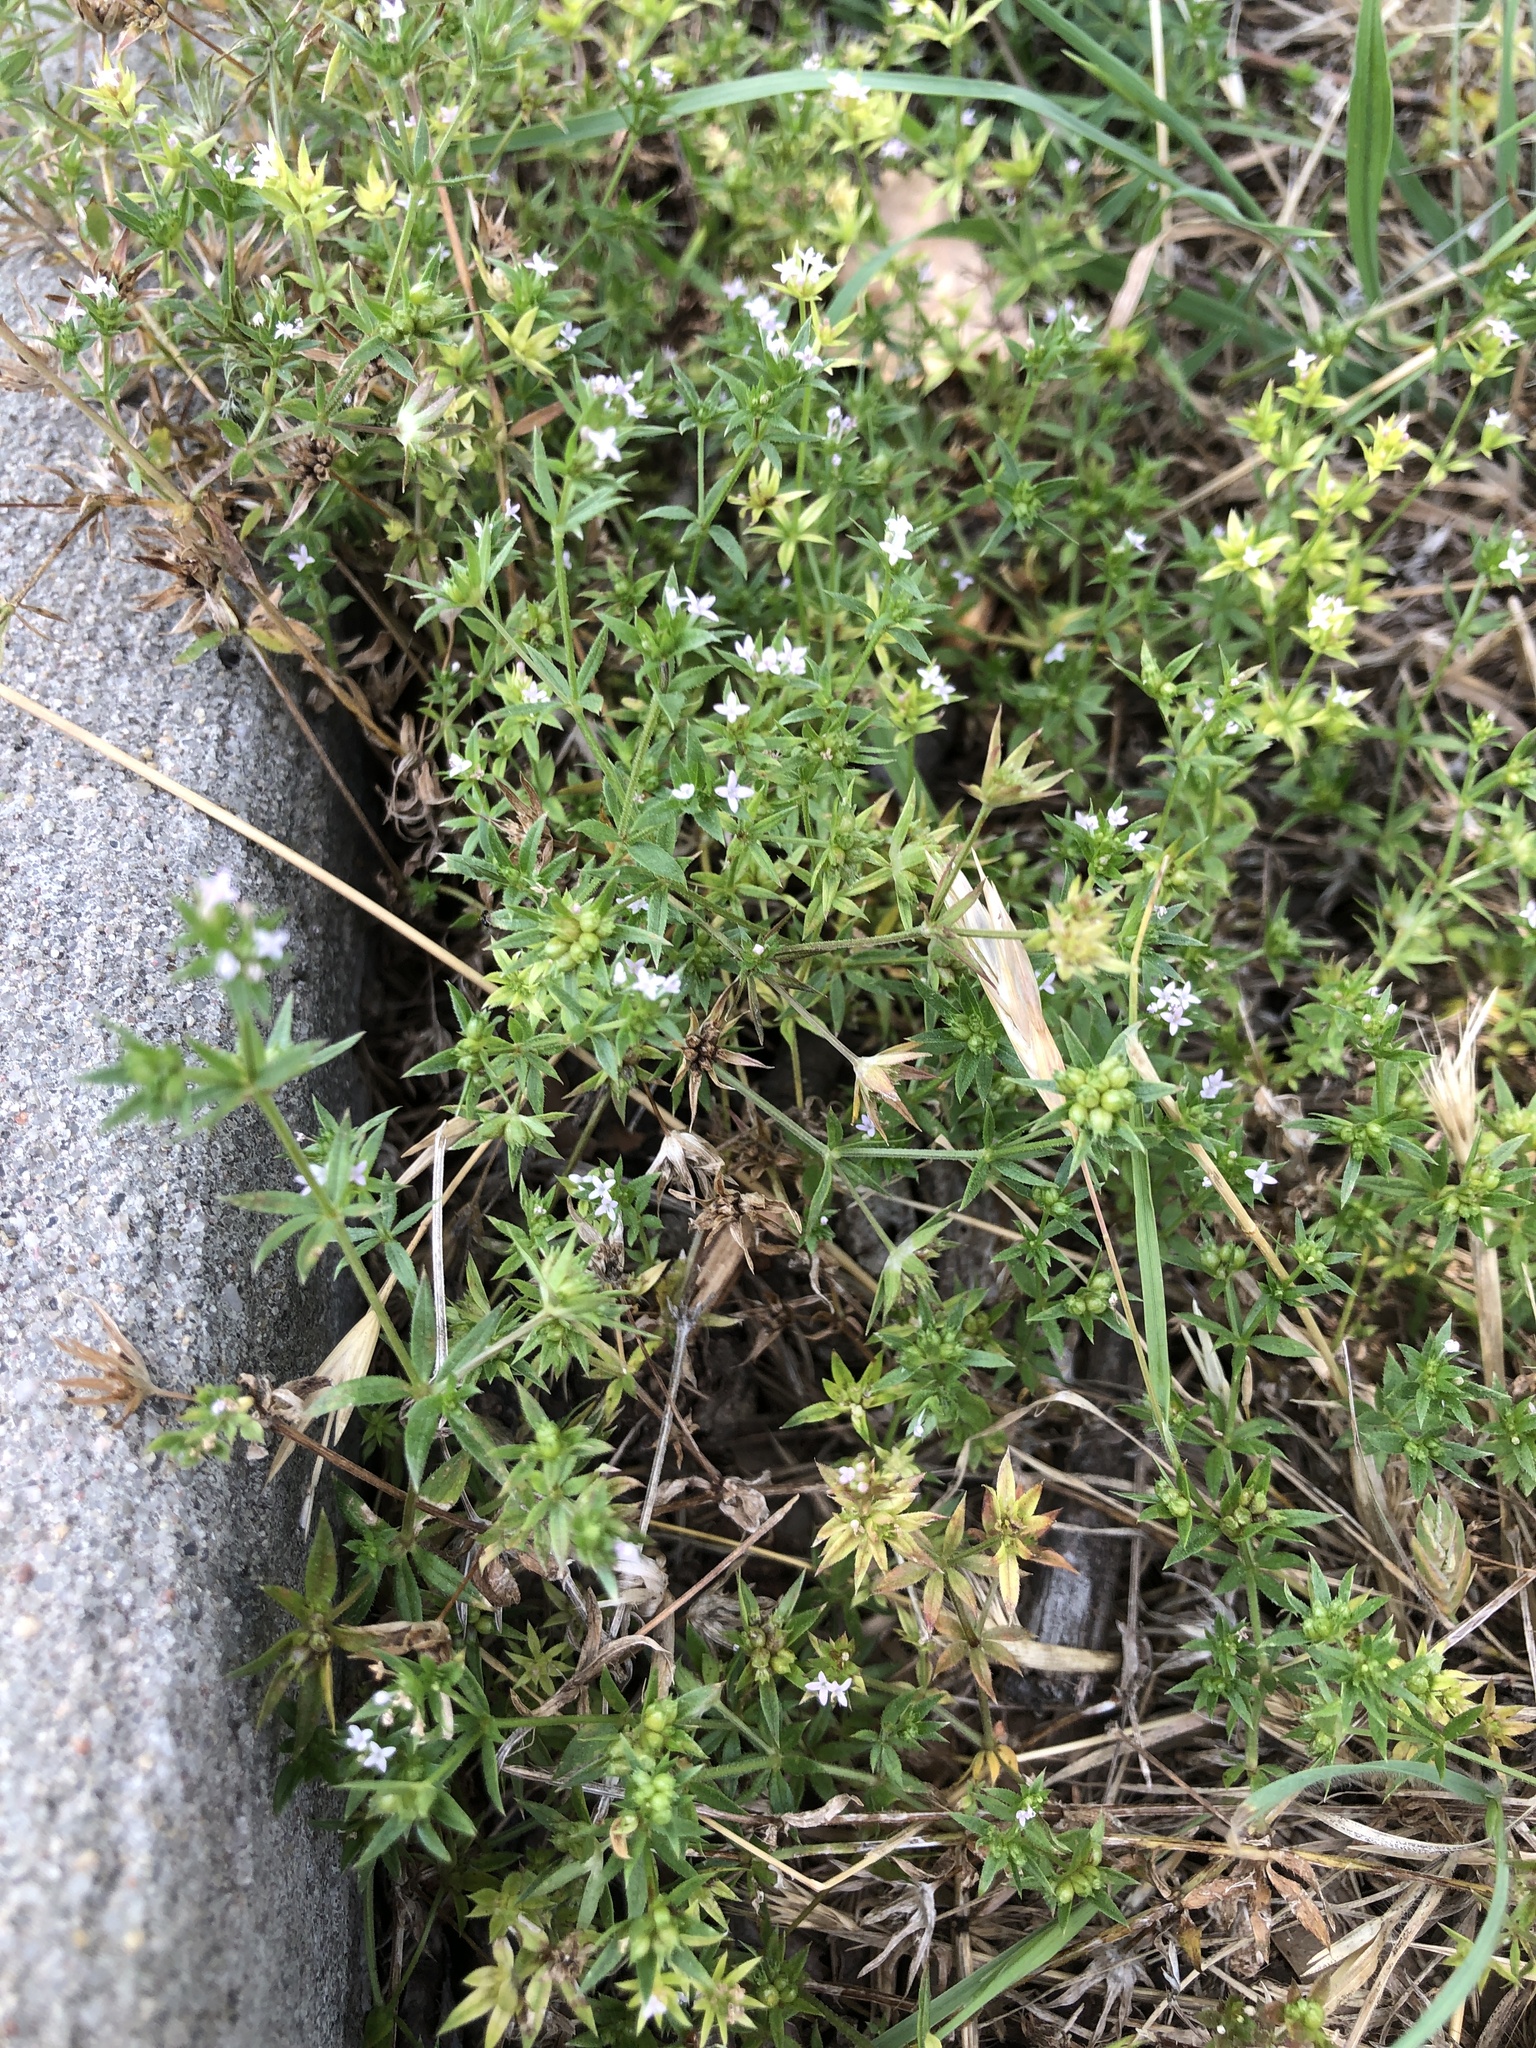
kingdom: Plantae
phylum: Tracheophyta
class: Magnoliopsida
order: Gentianales
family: Rubiaceae
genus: Sherardia
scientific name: Sherardia arvensis
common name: Field madder
